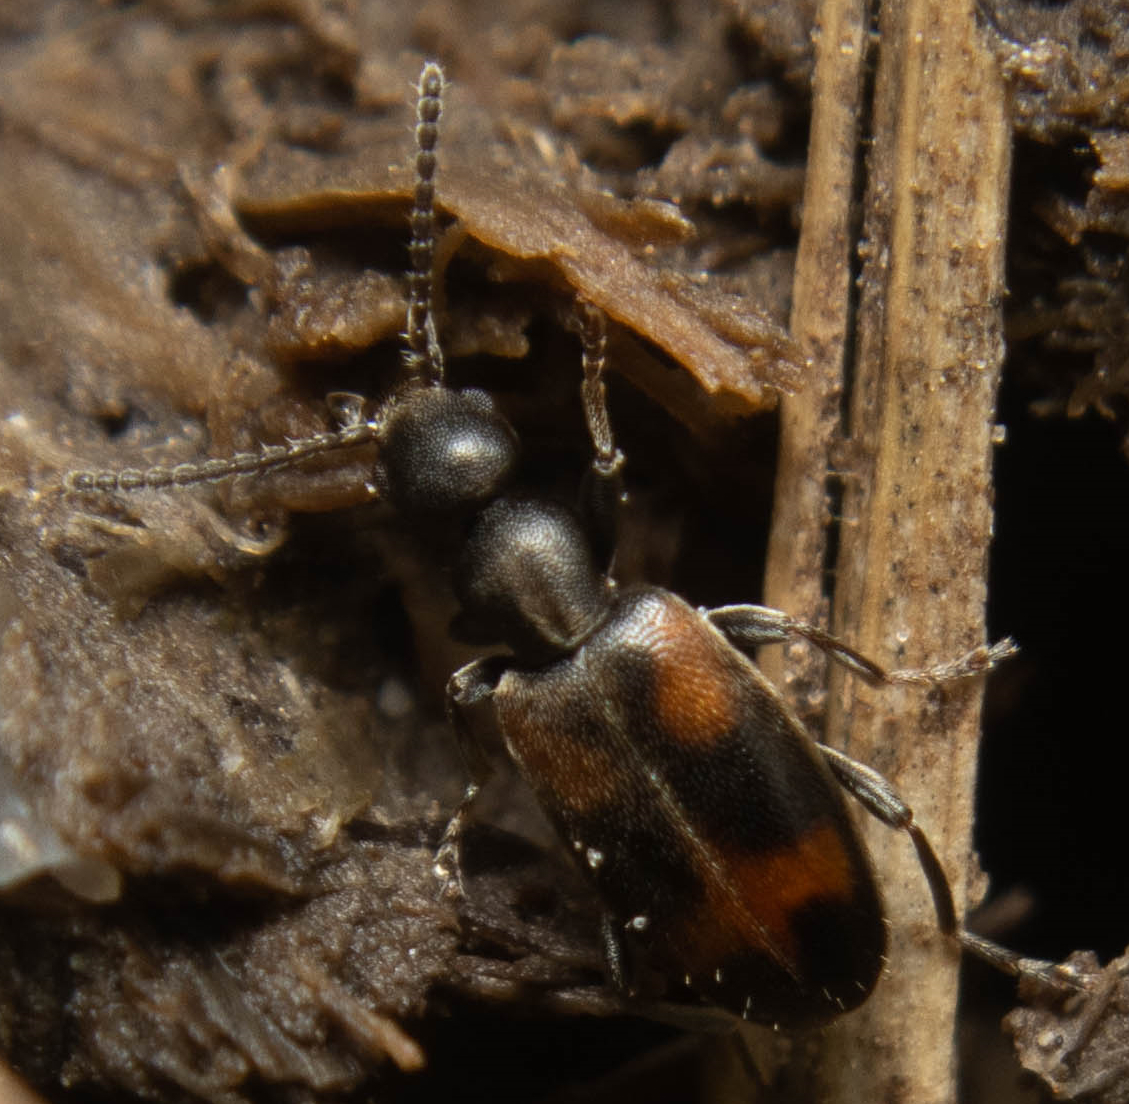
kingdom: Animalia
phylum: Arthropoda
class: Insecta
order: Coleoptera
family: Anthicidae
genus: Anthicus
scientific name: Anthicus antherinus
